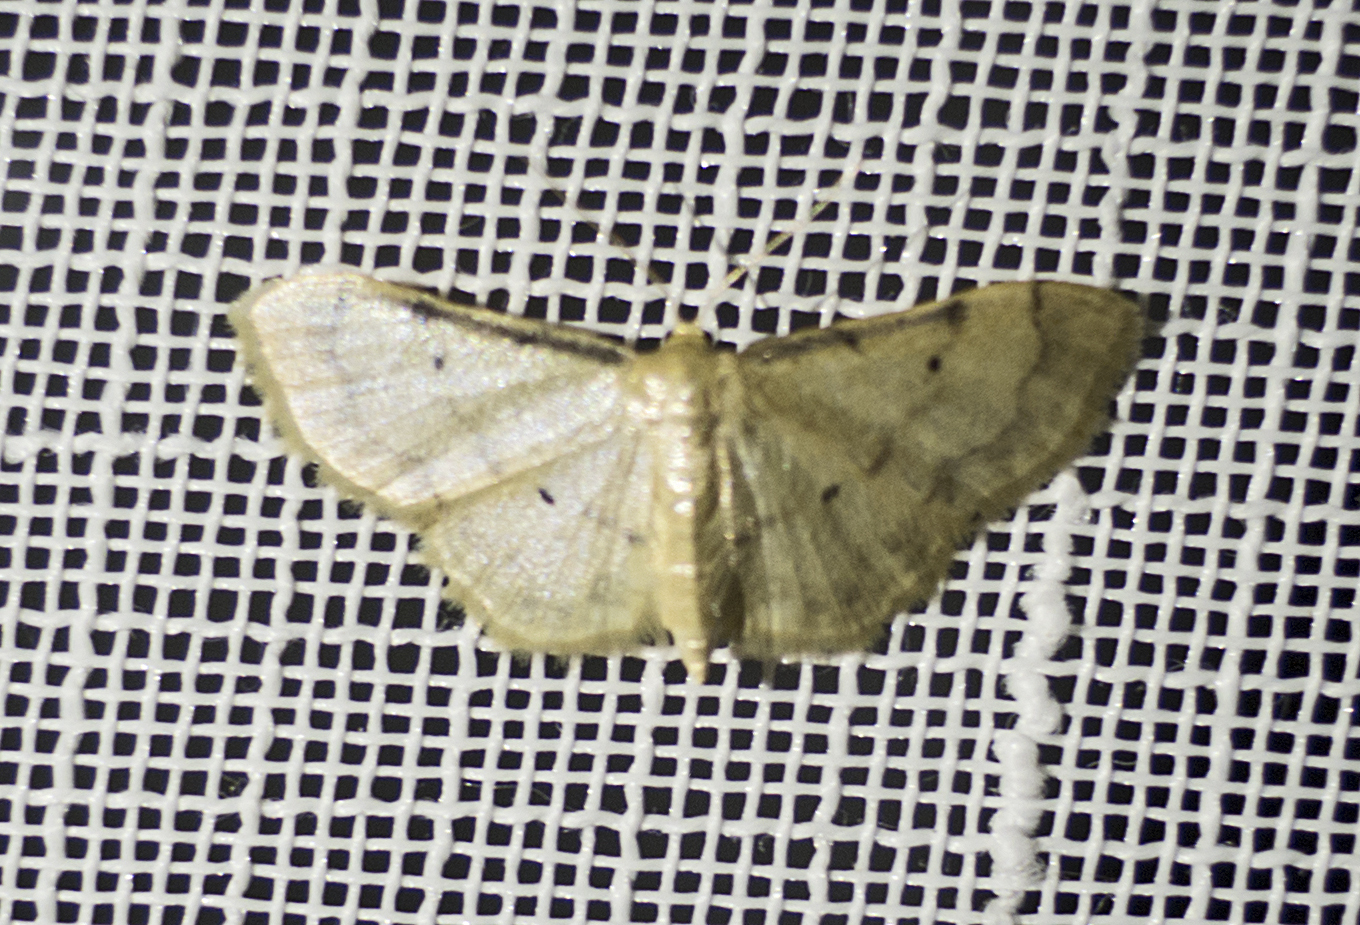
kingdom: Animalia
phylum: Arthropoda
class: Insecta
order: Lepidoptera
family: Geometridae
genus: Idaea
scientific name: Idaea politaria
